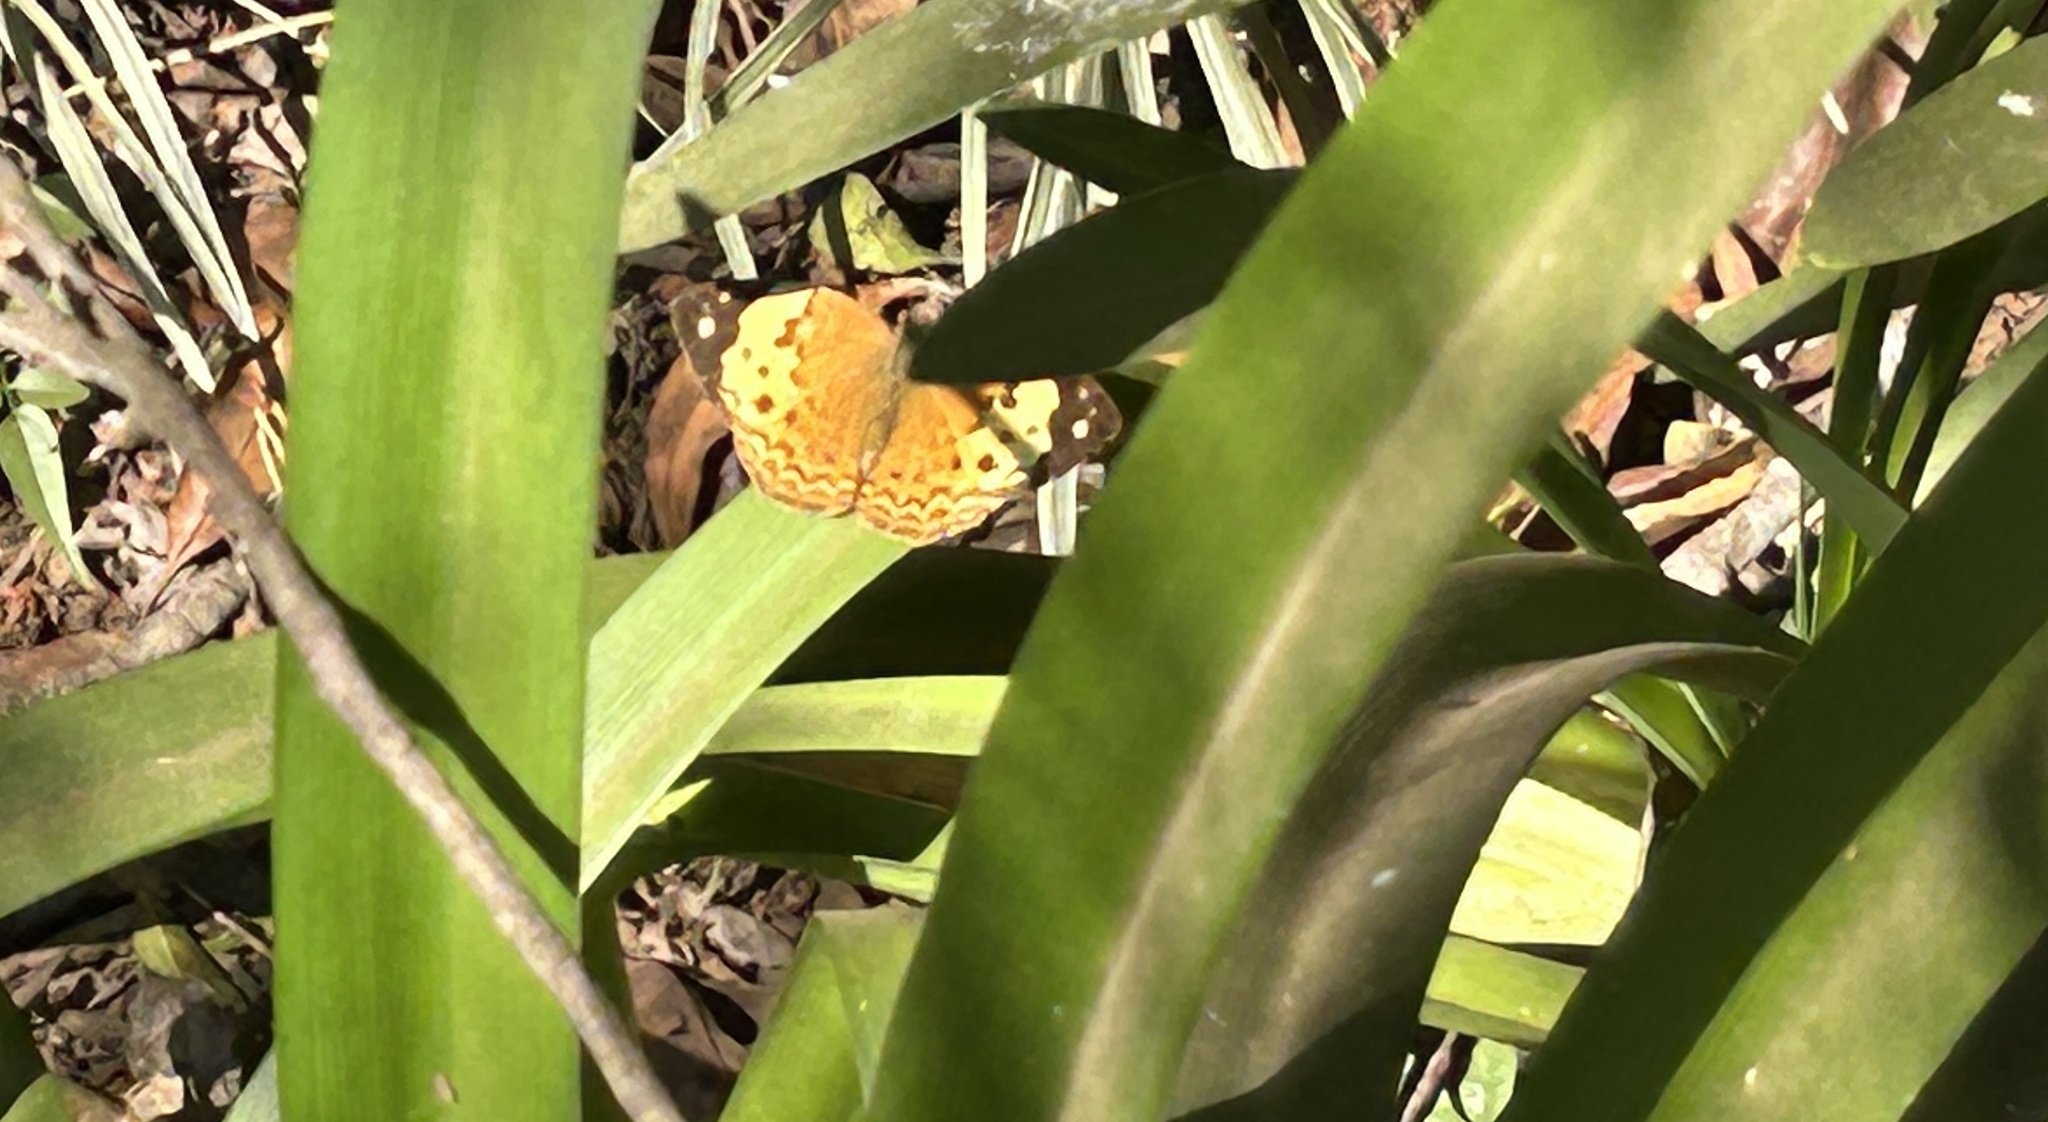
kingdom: Animalia
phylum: Arthropoda
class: Insecta
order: Lepidoptera
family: Nymphalidae
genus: Cupha
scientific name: Cupha erymanthis
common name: Rustic
